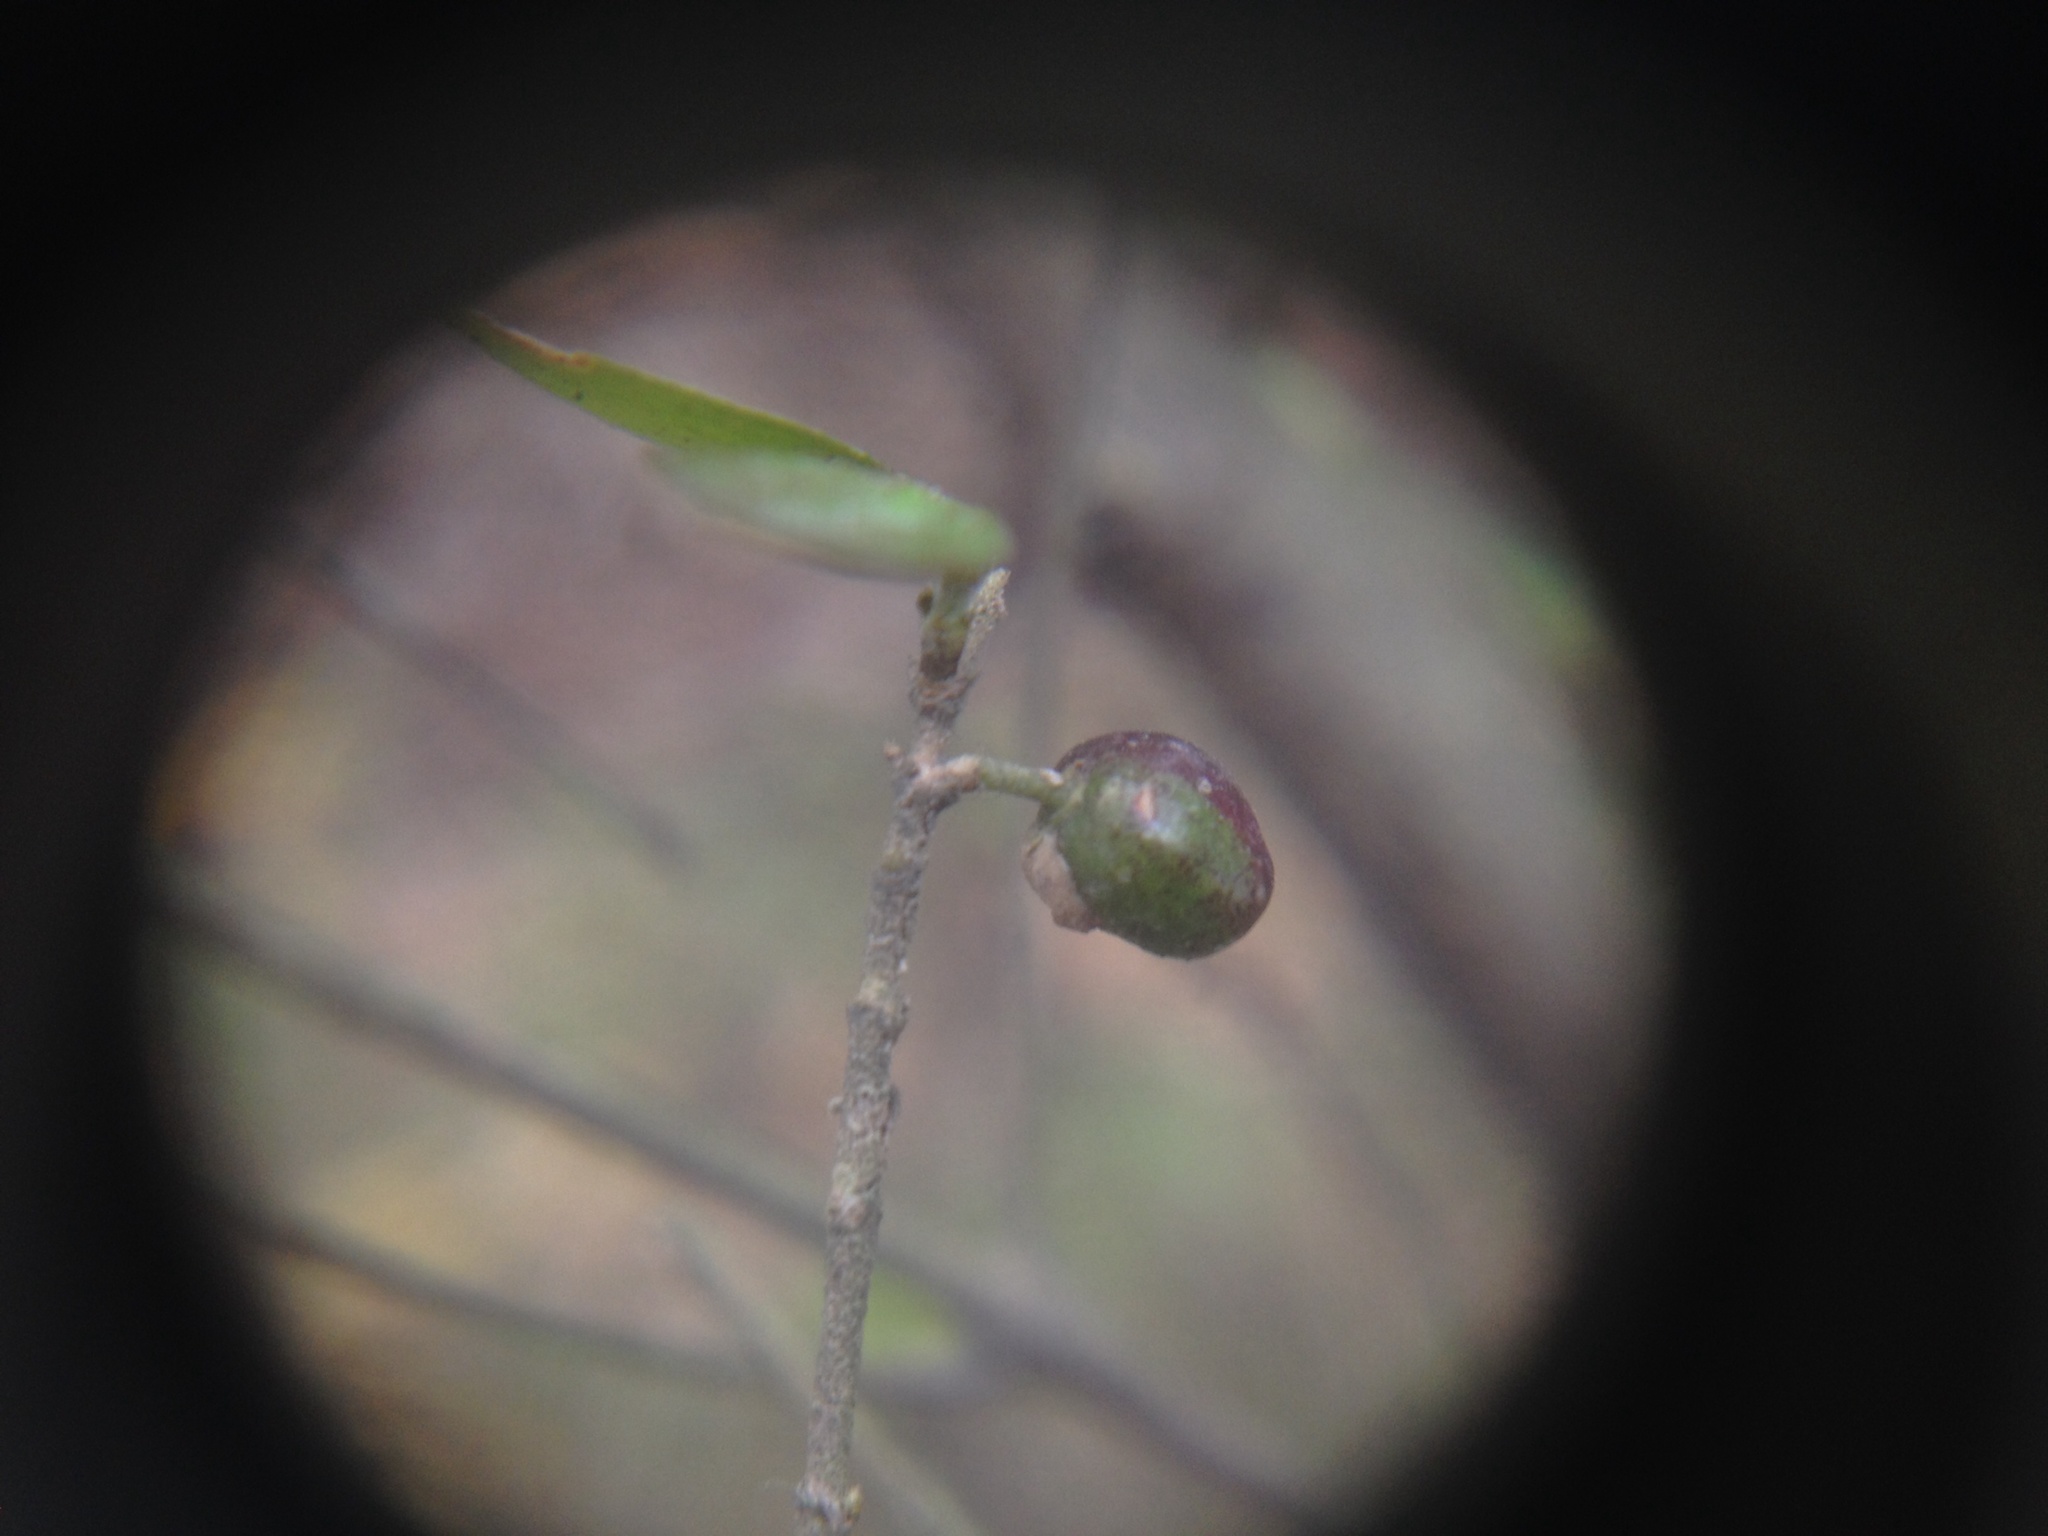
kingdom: Plantae
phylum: Tracheophyta
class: Magnoliopsida
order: Gentianales
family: Rubiaceae
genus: Coprosma
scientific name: Coprosma rhamnoides
